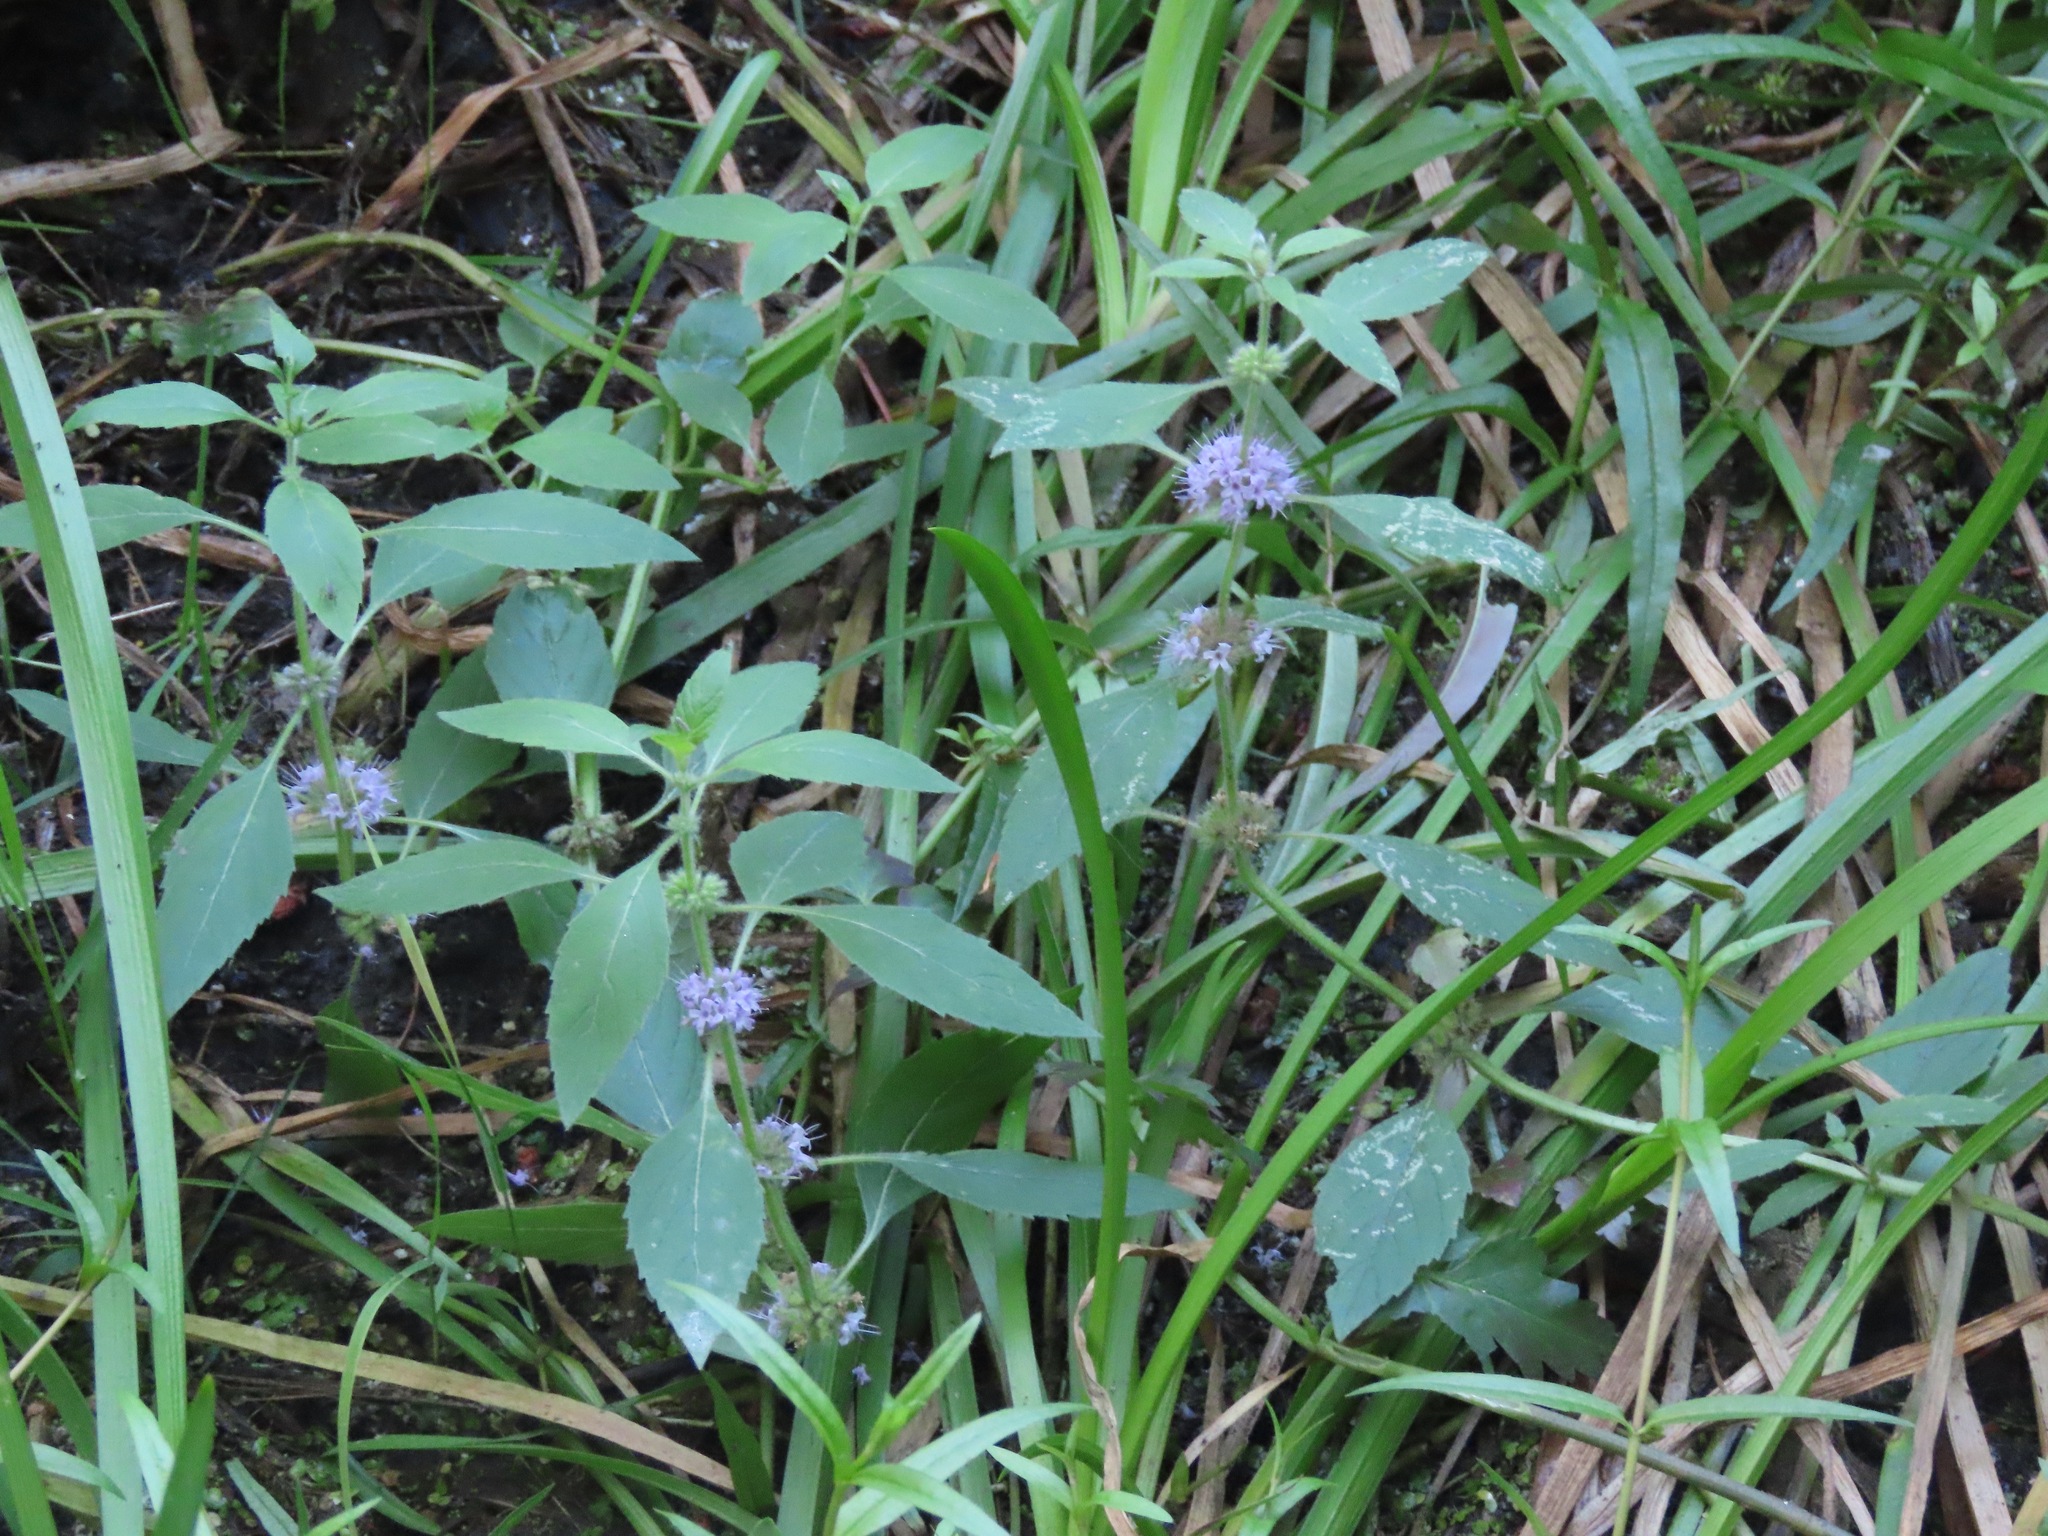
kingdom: Plantae
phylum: Tracheophyta
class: Magnoliopsida
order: Lamiales
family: Lamiaceae
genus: Mentha
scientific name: Mentha canadensis
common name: American corn mint
